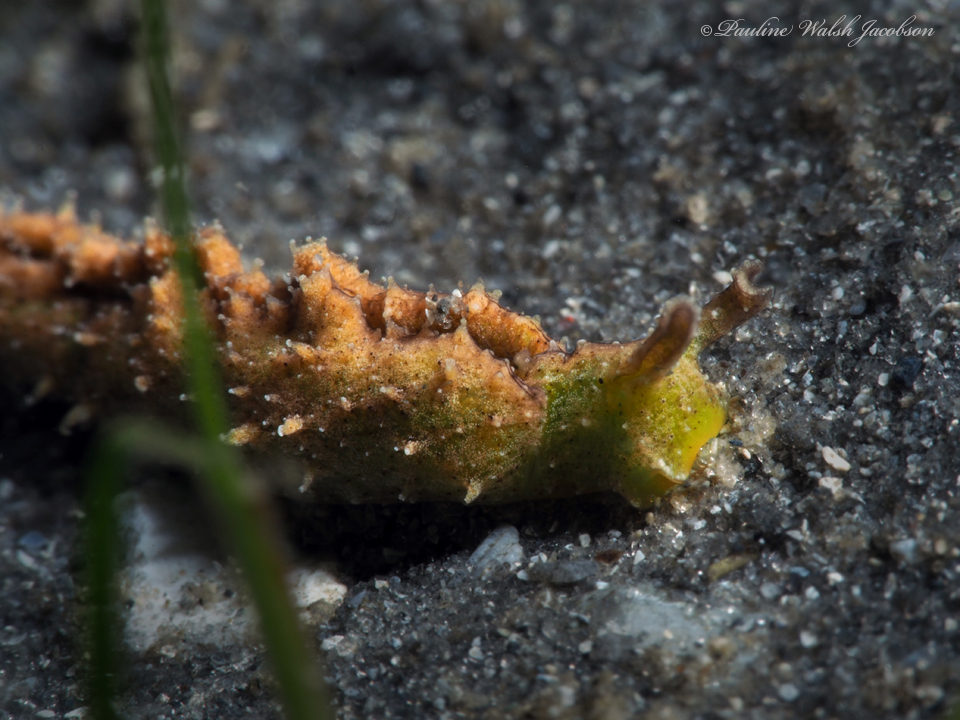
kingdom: Animalia
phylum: Mollusca
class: Gastropoda
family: Plakobranchidae
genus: Elysia
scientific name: Elysia subornata
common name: Ruffled elysia
